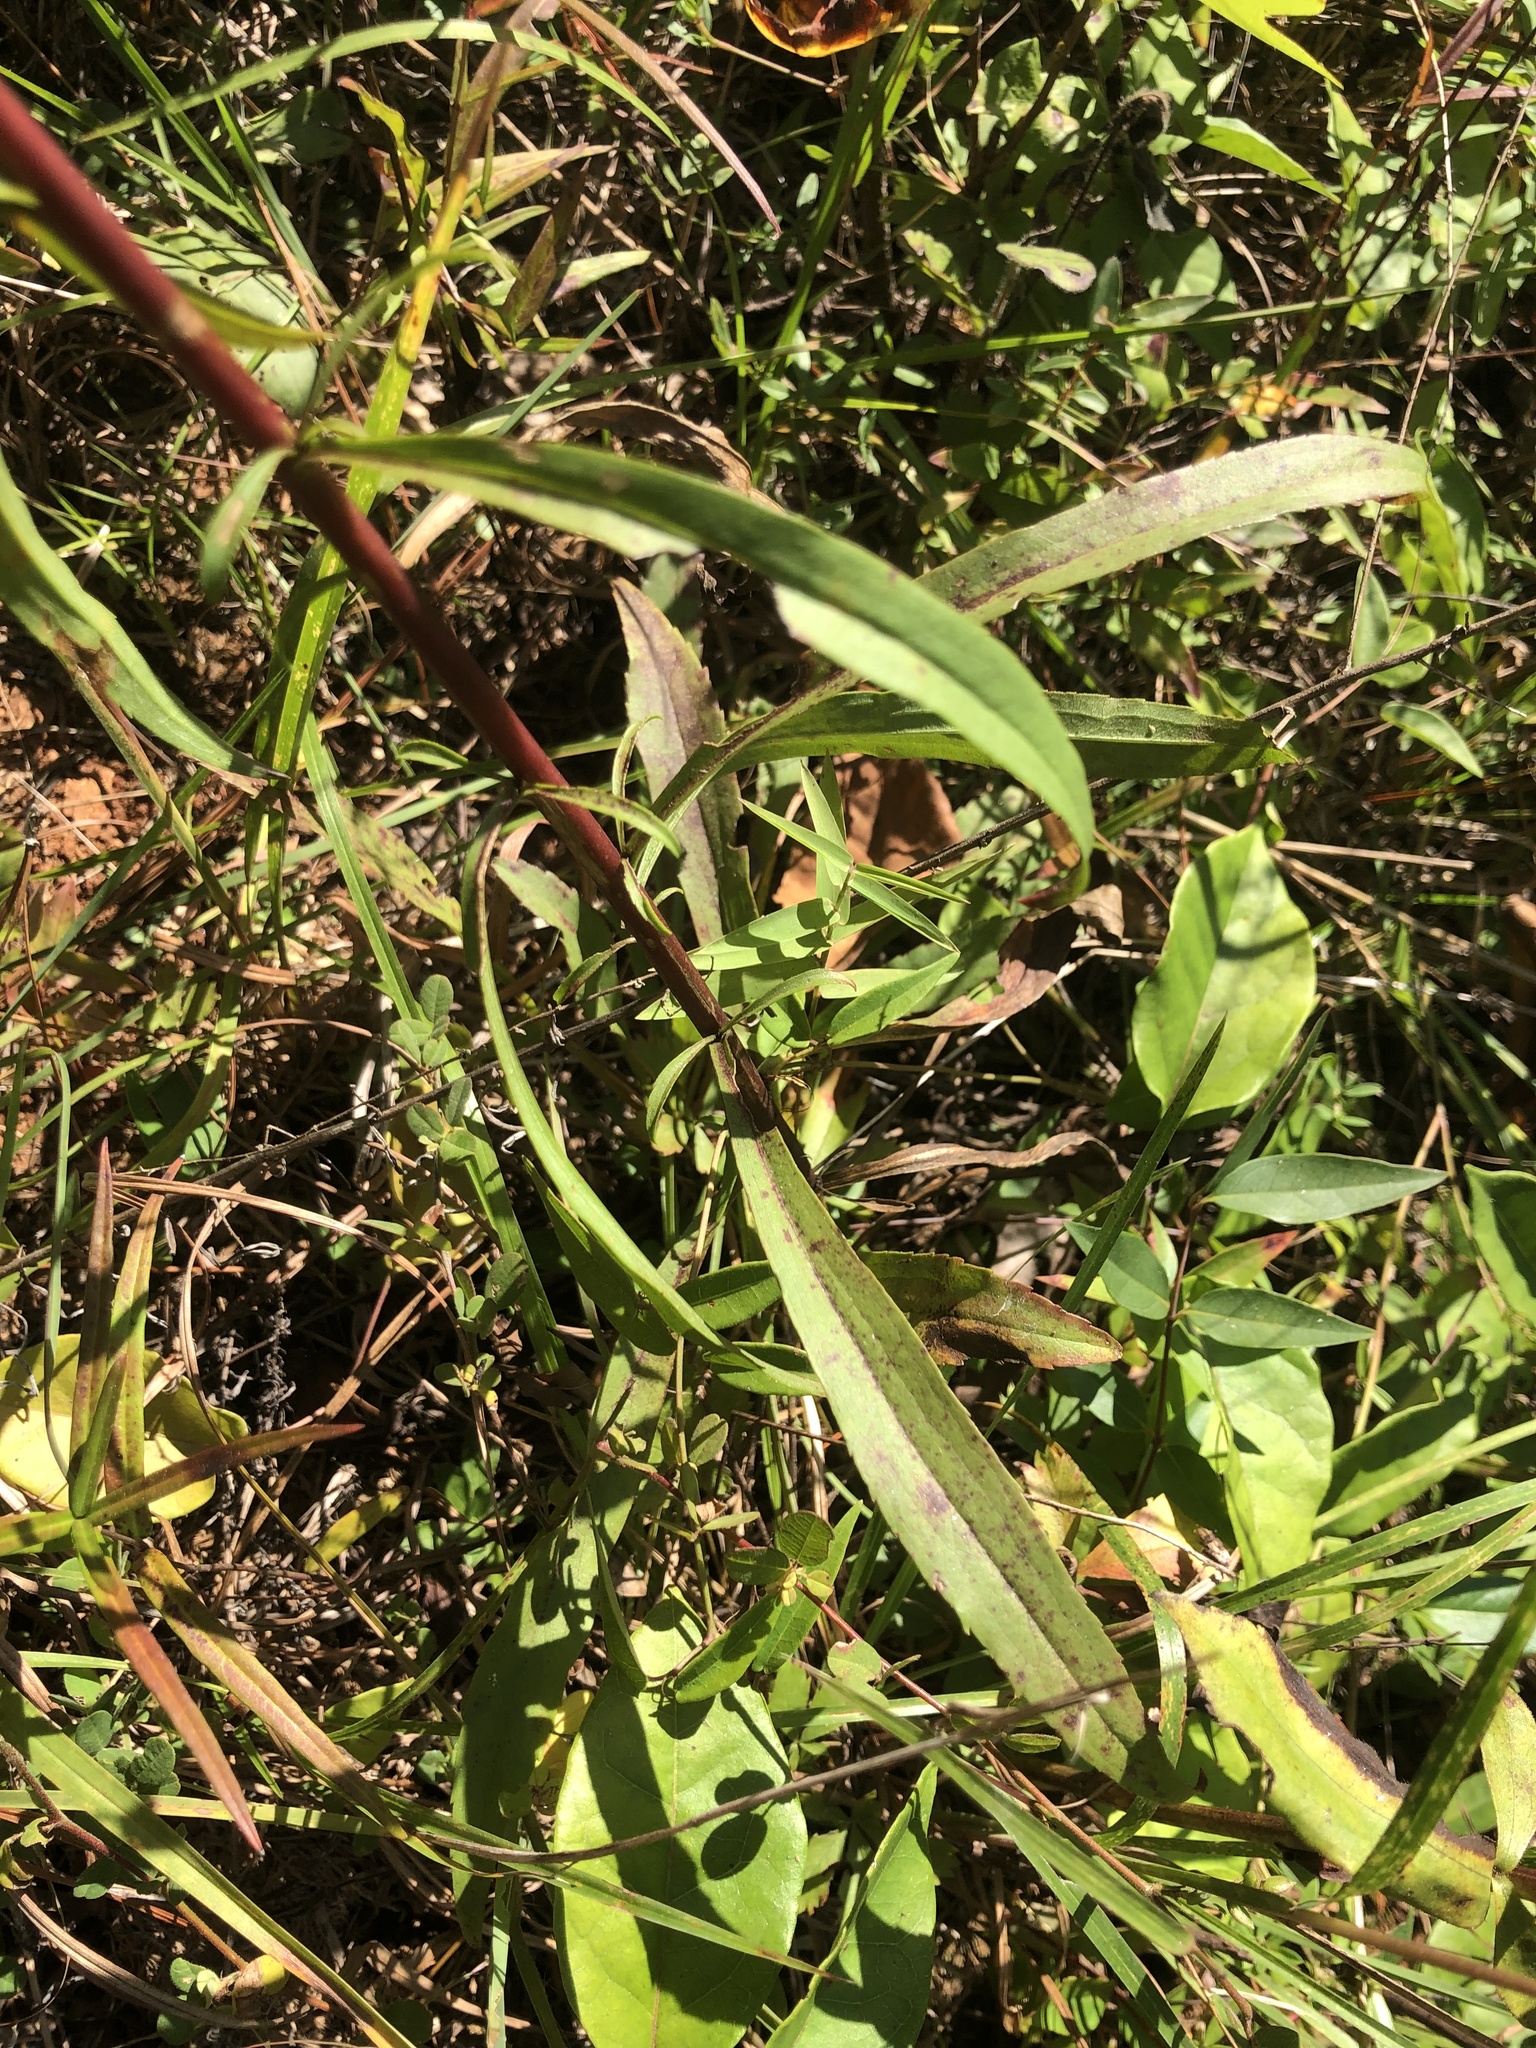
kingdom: Plantae
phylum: Tracheophyta
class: Magnoliopsida
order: Asterales
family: Asteraceae
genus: Solidago
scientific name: Solidago pinetorum
